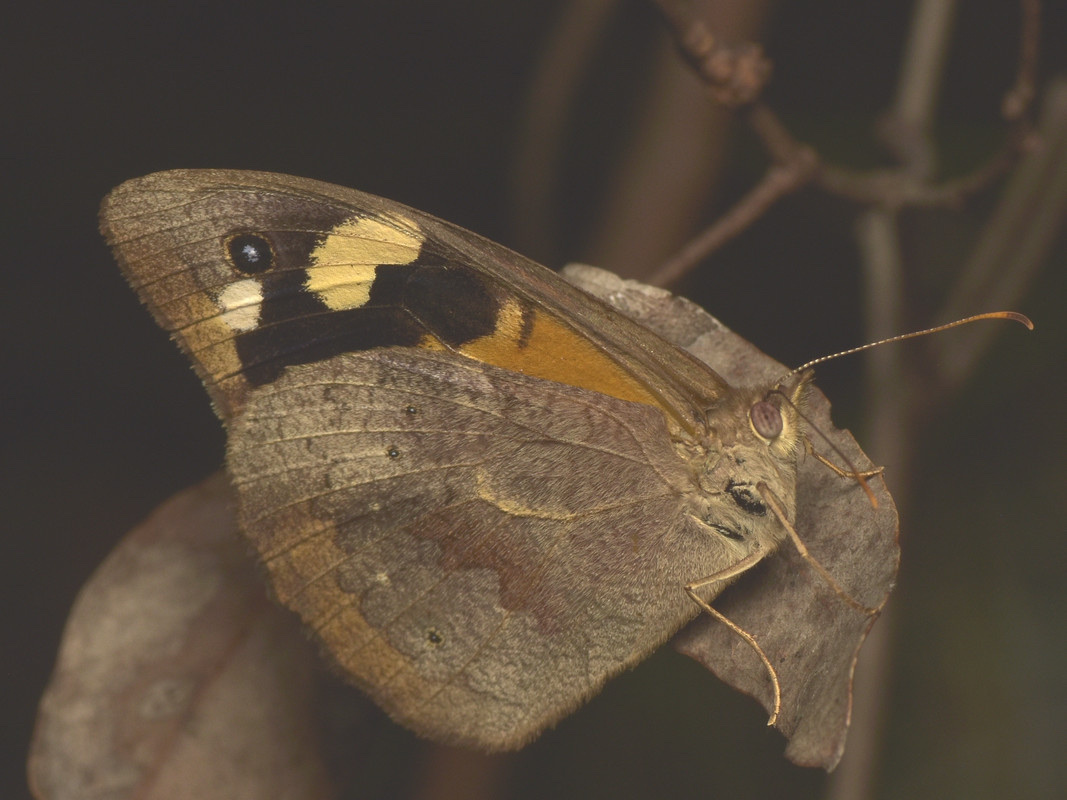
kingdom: Animalia
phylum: Arthropoda
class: Insecta
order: Lepidoptera
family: Nymphalidae
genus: Heteronympha
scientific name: Heteronympha merope
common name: Common brown
